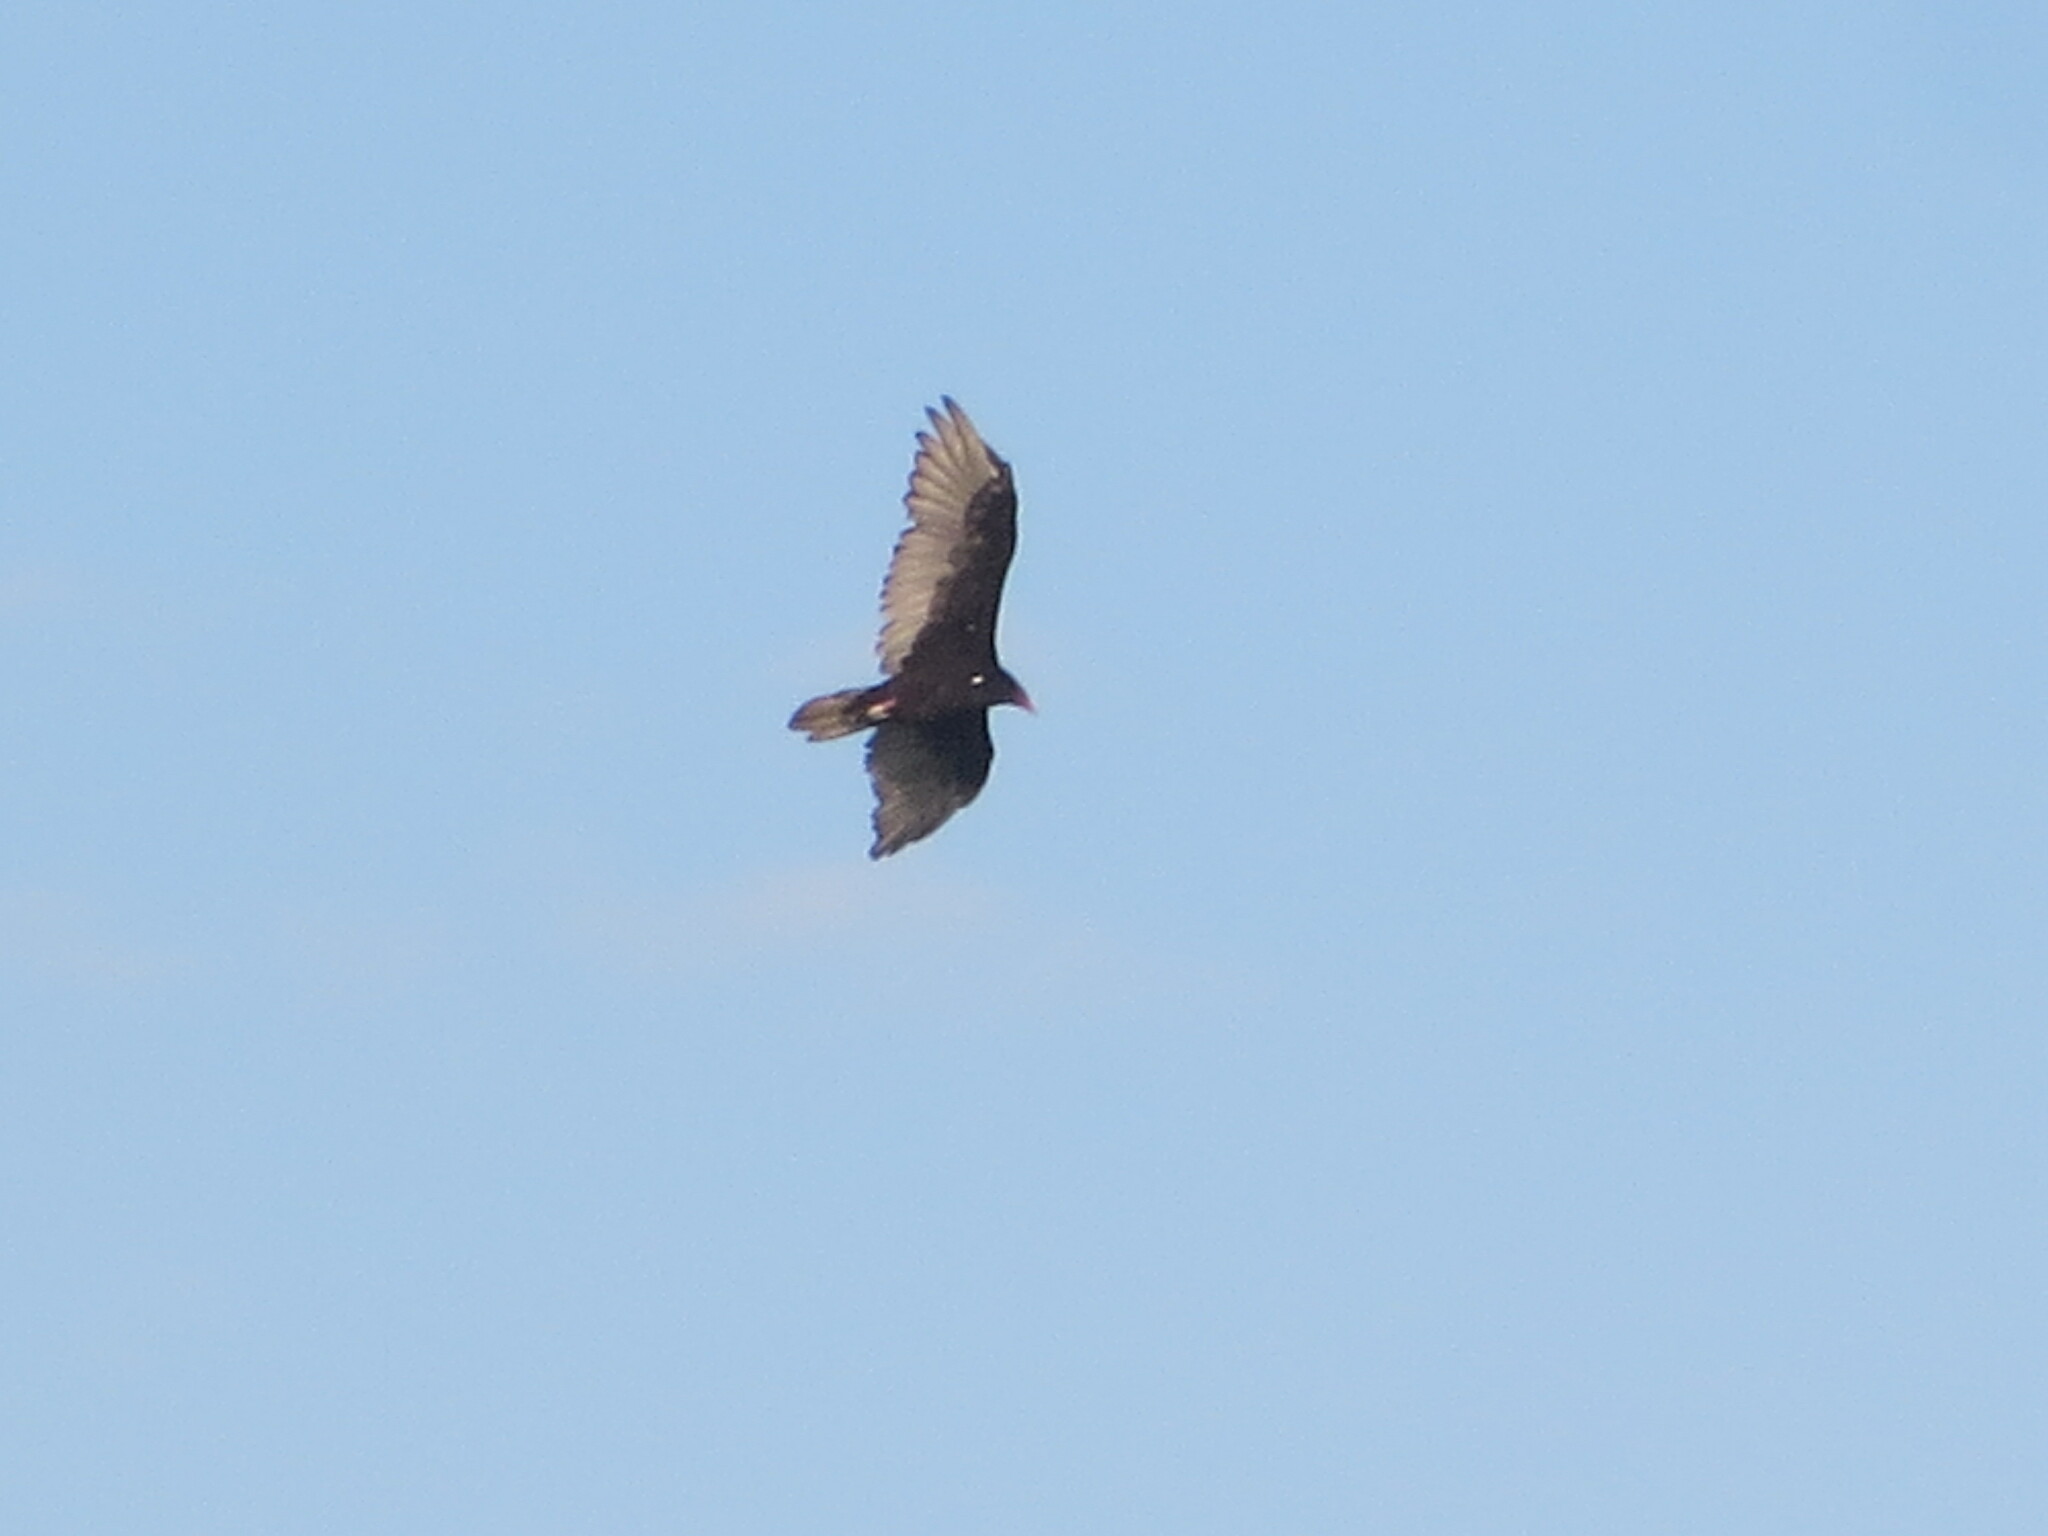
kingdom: Animalia
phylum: Chordata
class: Aves
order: Accipitriformes
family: Cathartidae
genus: Cathartes
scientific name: Cathartes aura
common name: Turkey vulture
